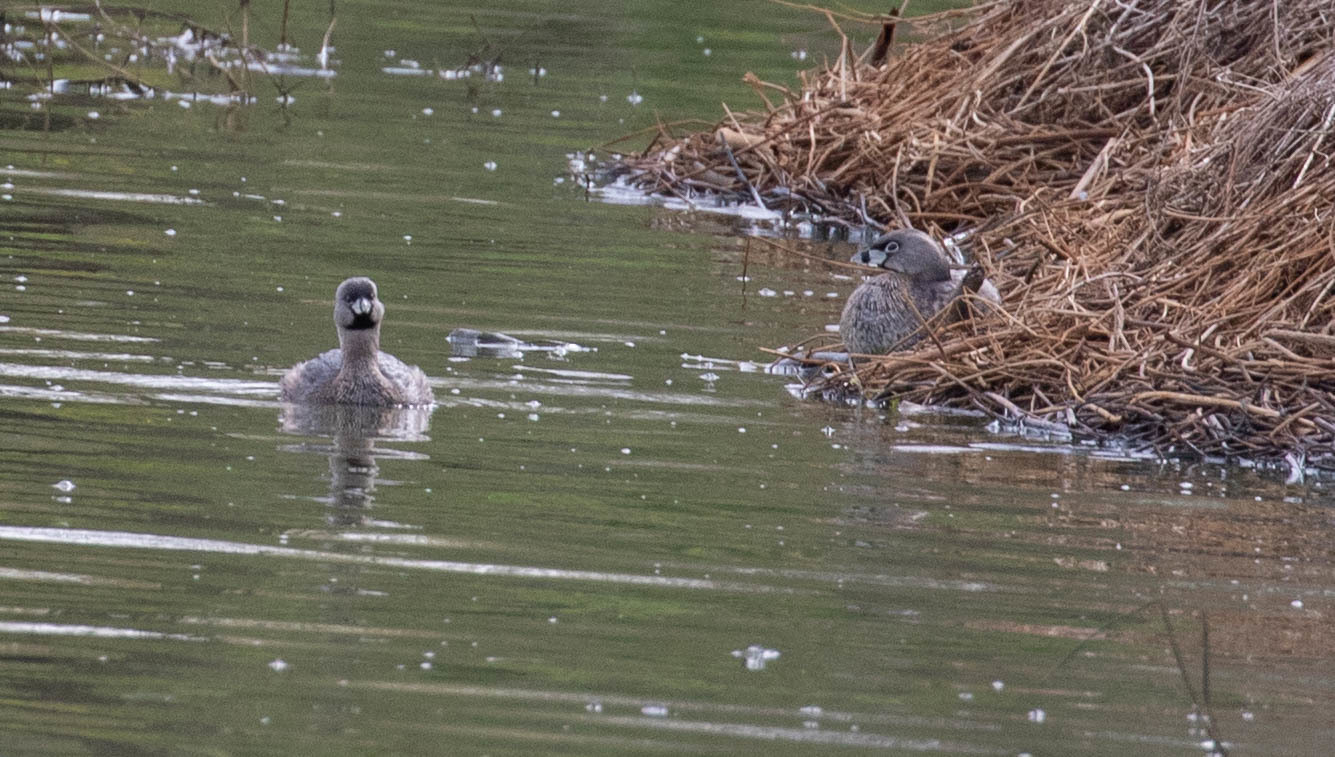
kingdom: Animalia
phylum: Chordata
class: Aves
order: Podicipediformes
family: Podicipedidae
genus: Podilymbus
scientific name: Podilymbus podiceps
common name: Pied-billed grebe
